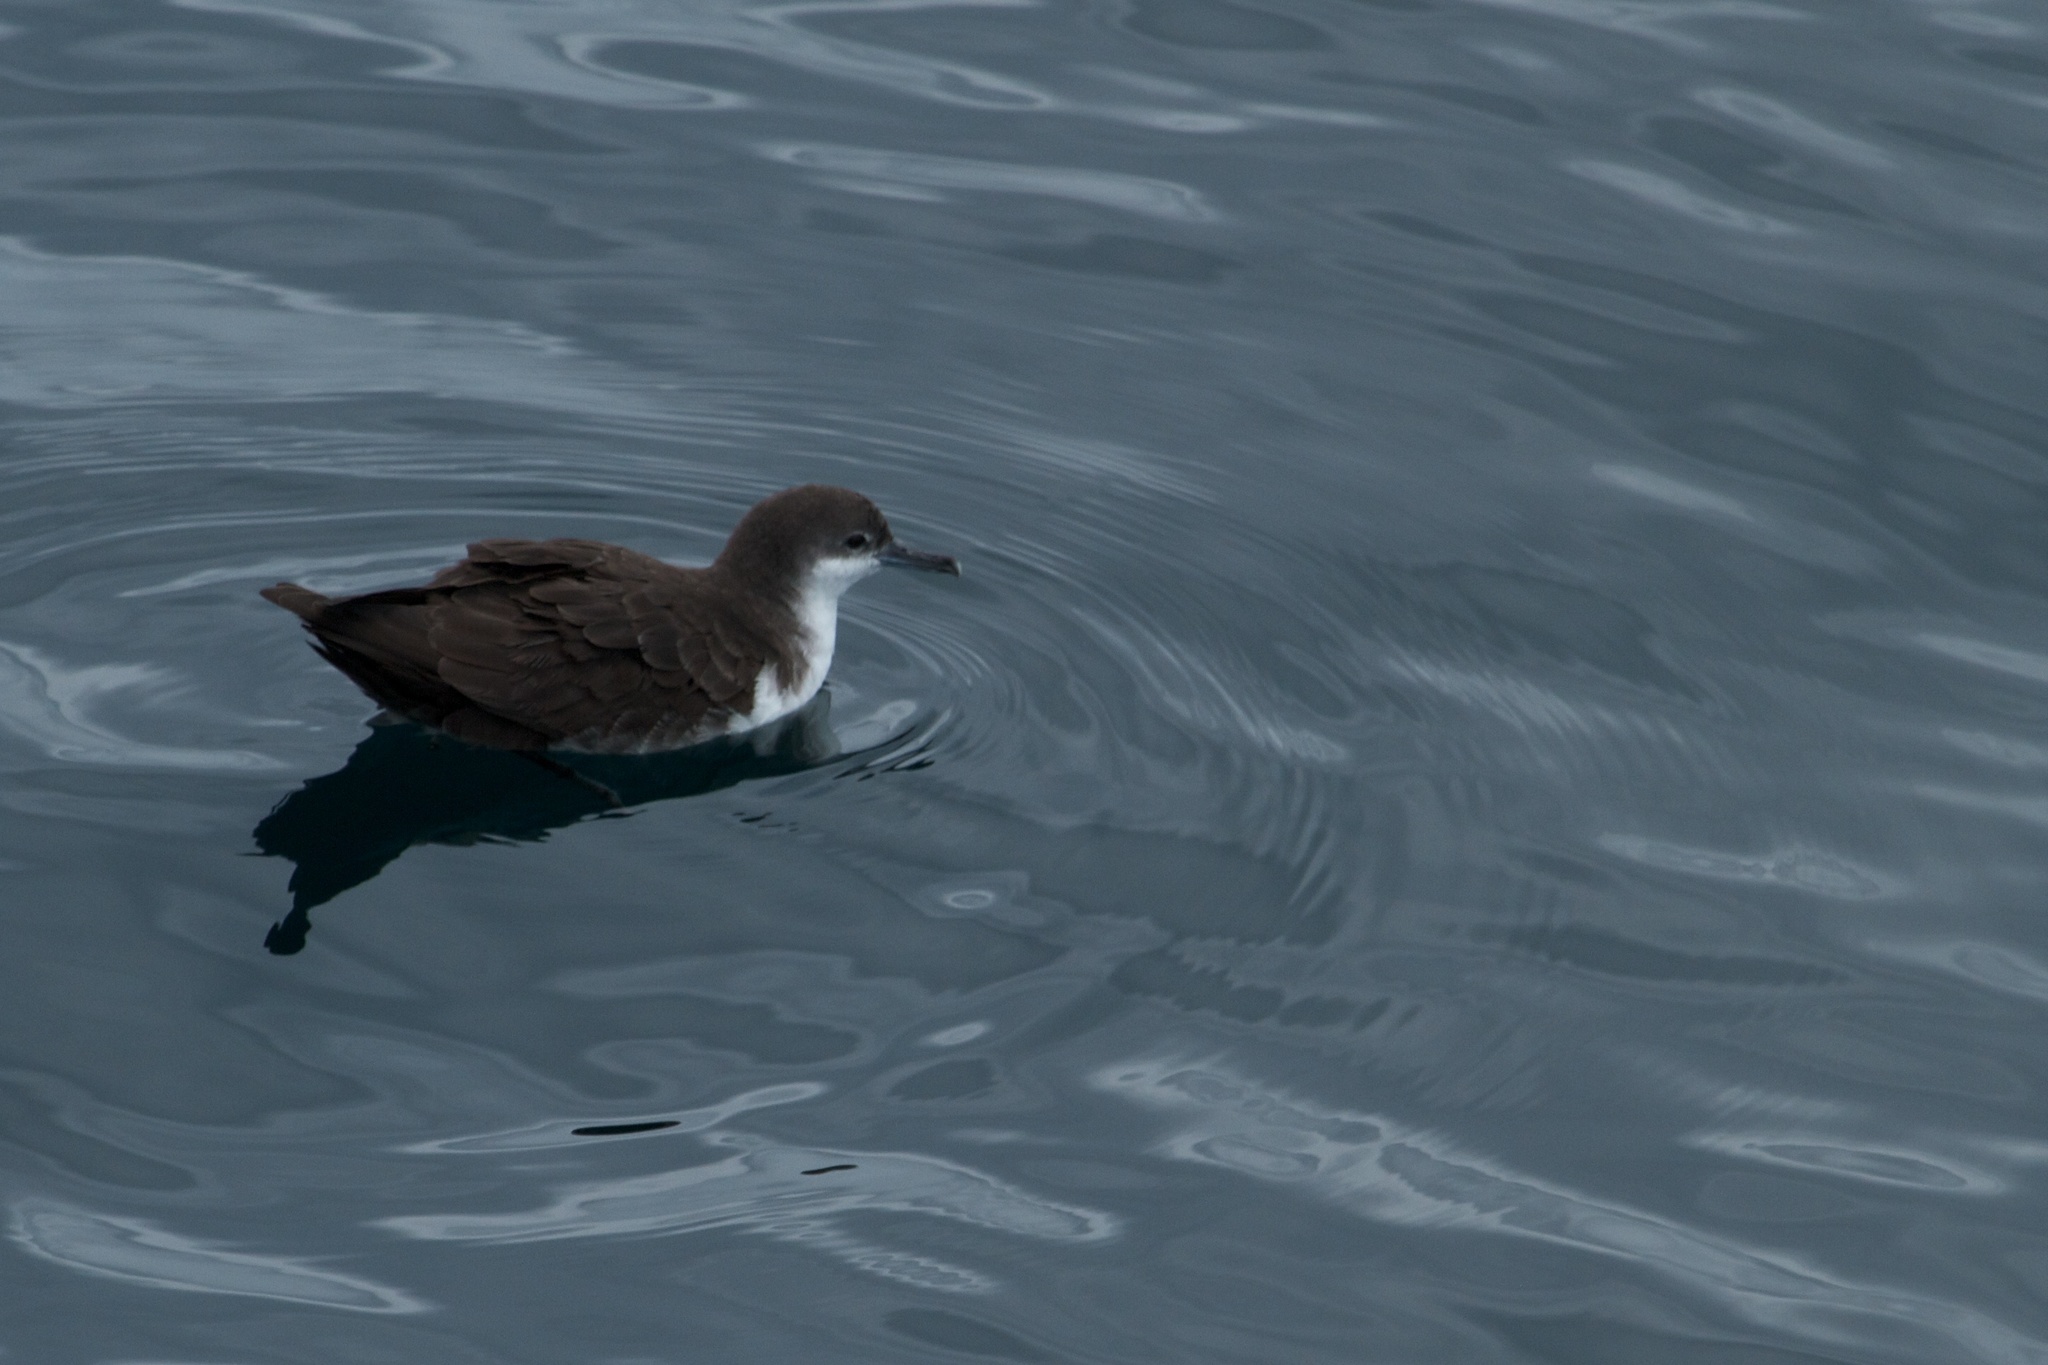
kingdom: Animalia
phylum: Chordata
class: Aves
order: Procellariiformes
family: Procellariidae
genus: Puffinus
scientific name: Puffinus subalaris
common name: Galapagos shearwater
